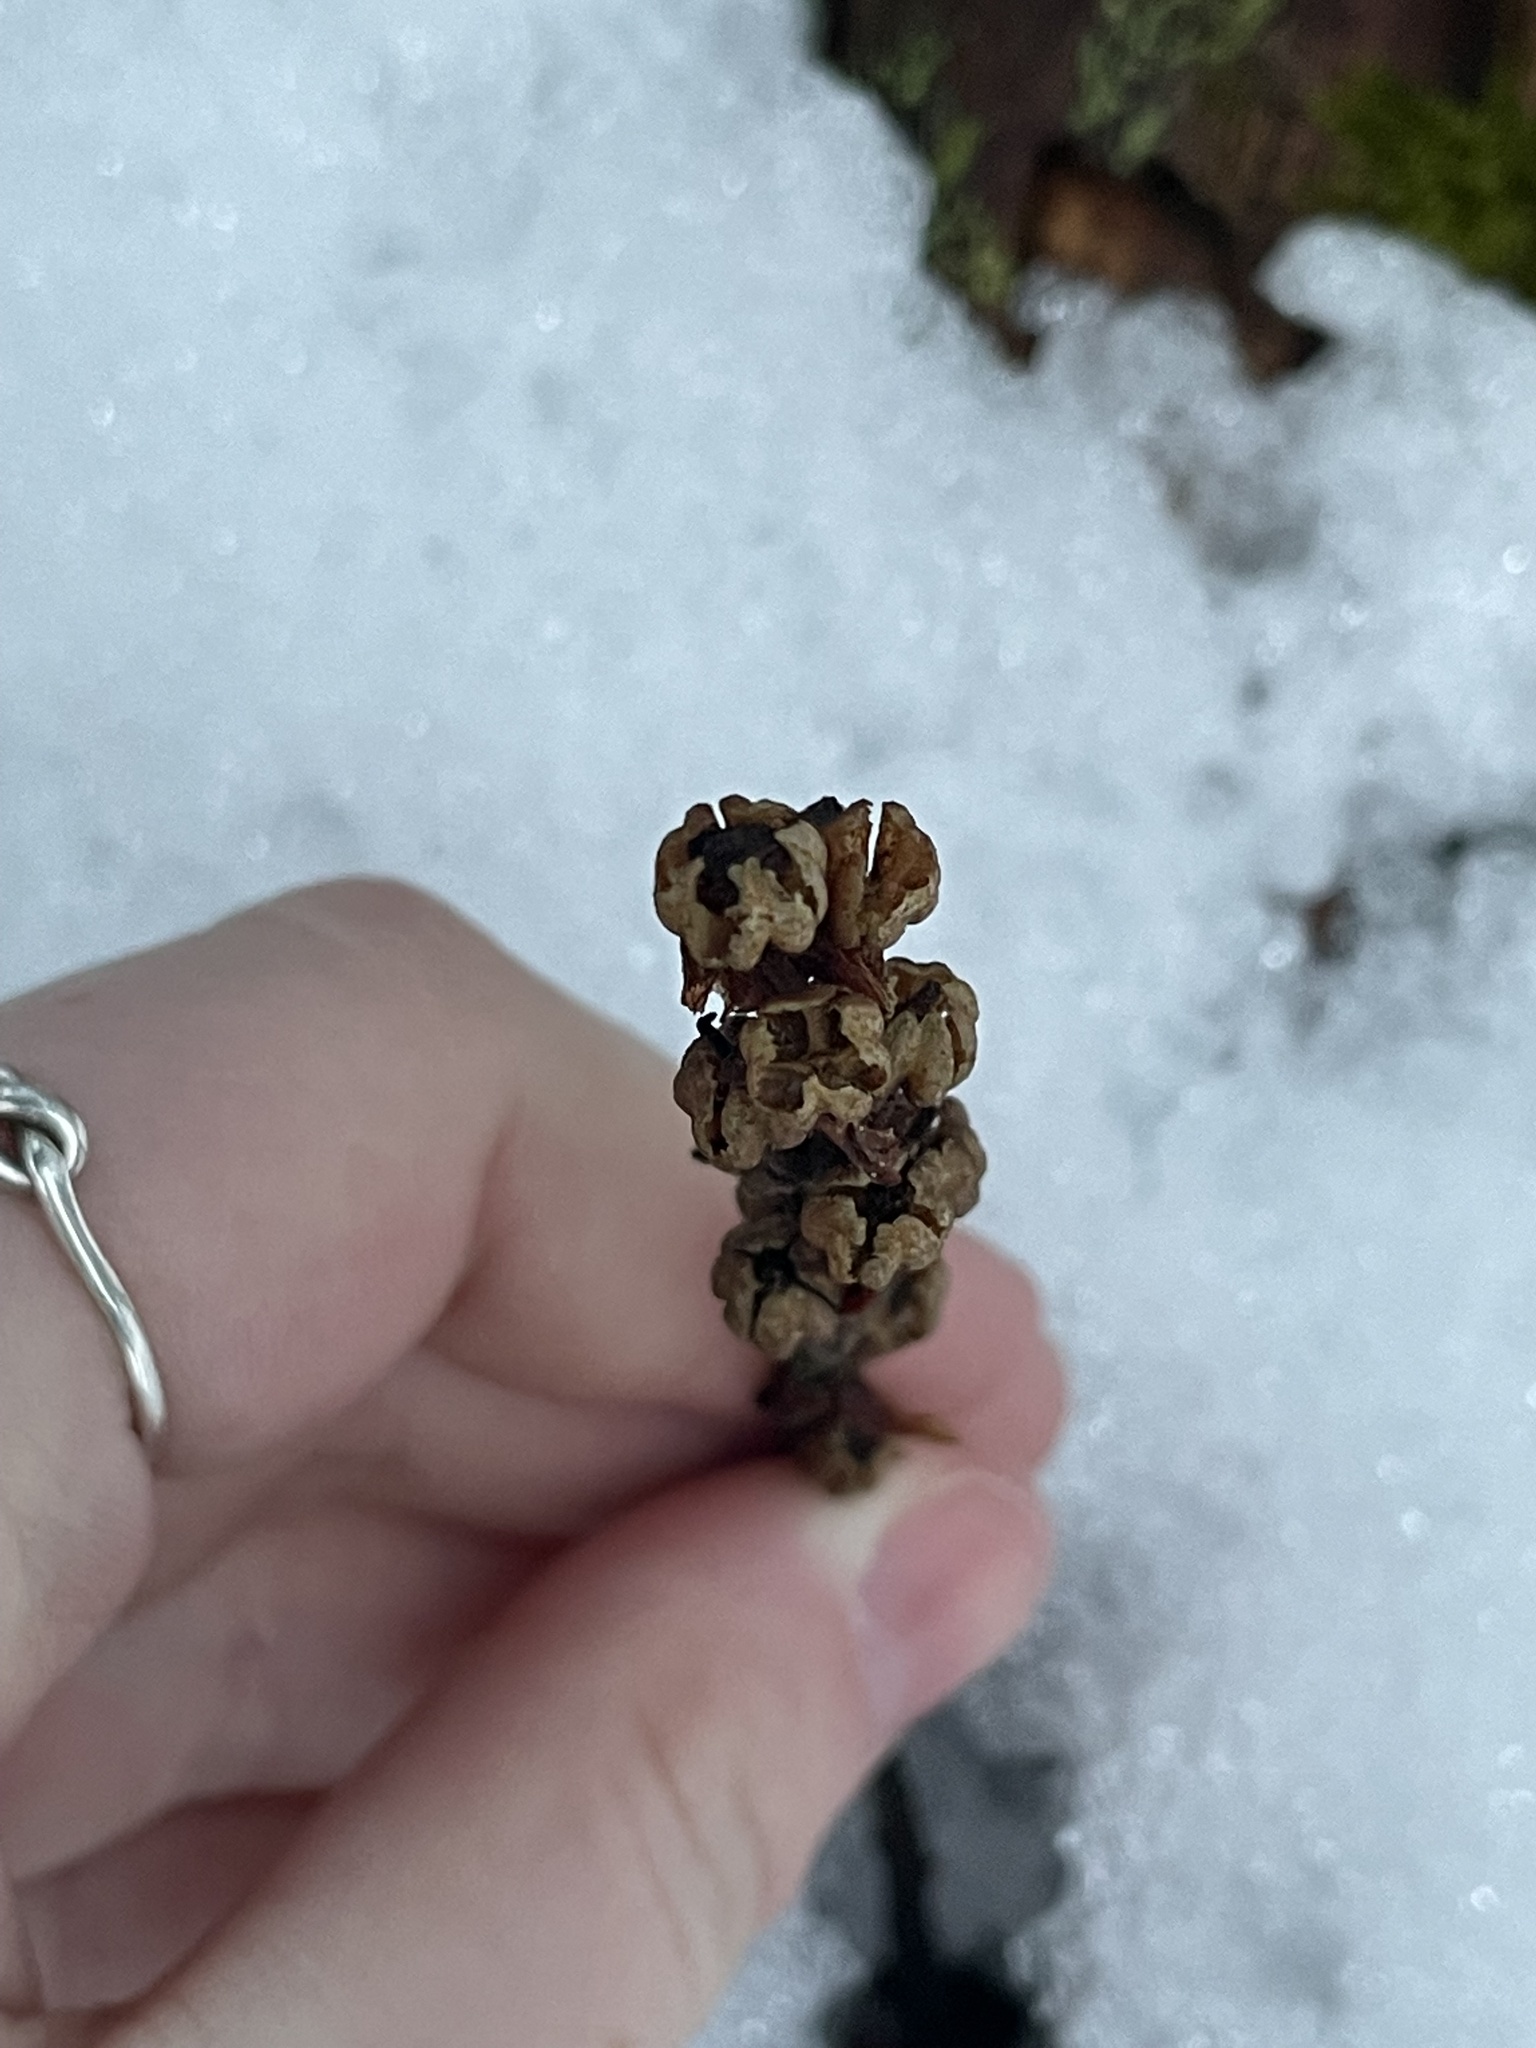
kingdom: Plantae
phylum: Tracheophyta
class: Magnoliopsida
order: Ericales
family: Ericaceae
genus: Hypopitys
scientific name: Hypopitys monotropa
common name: Yellow bird's-nest
